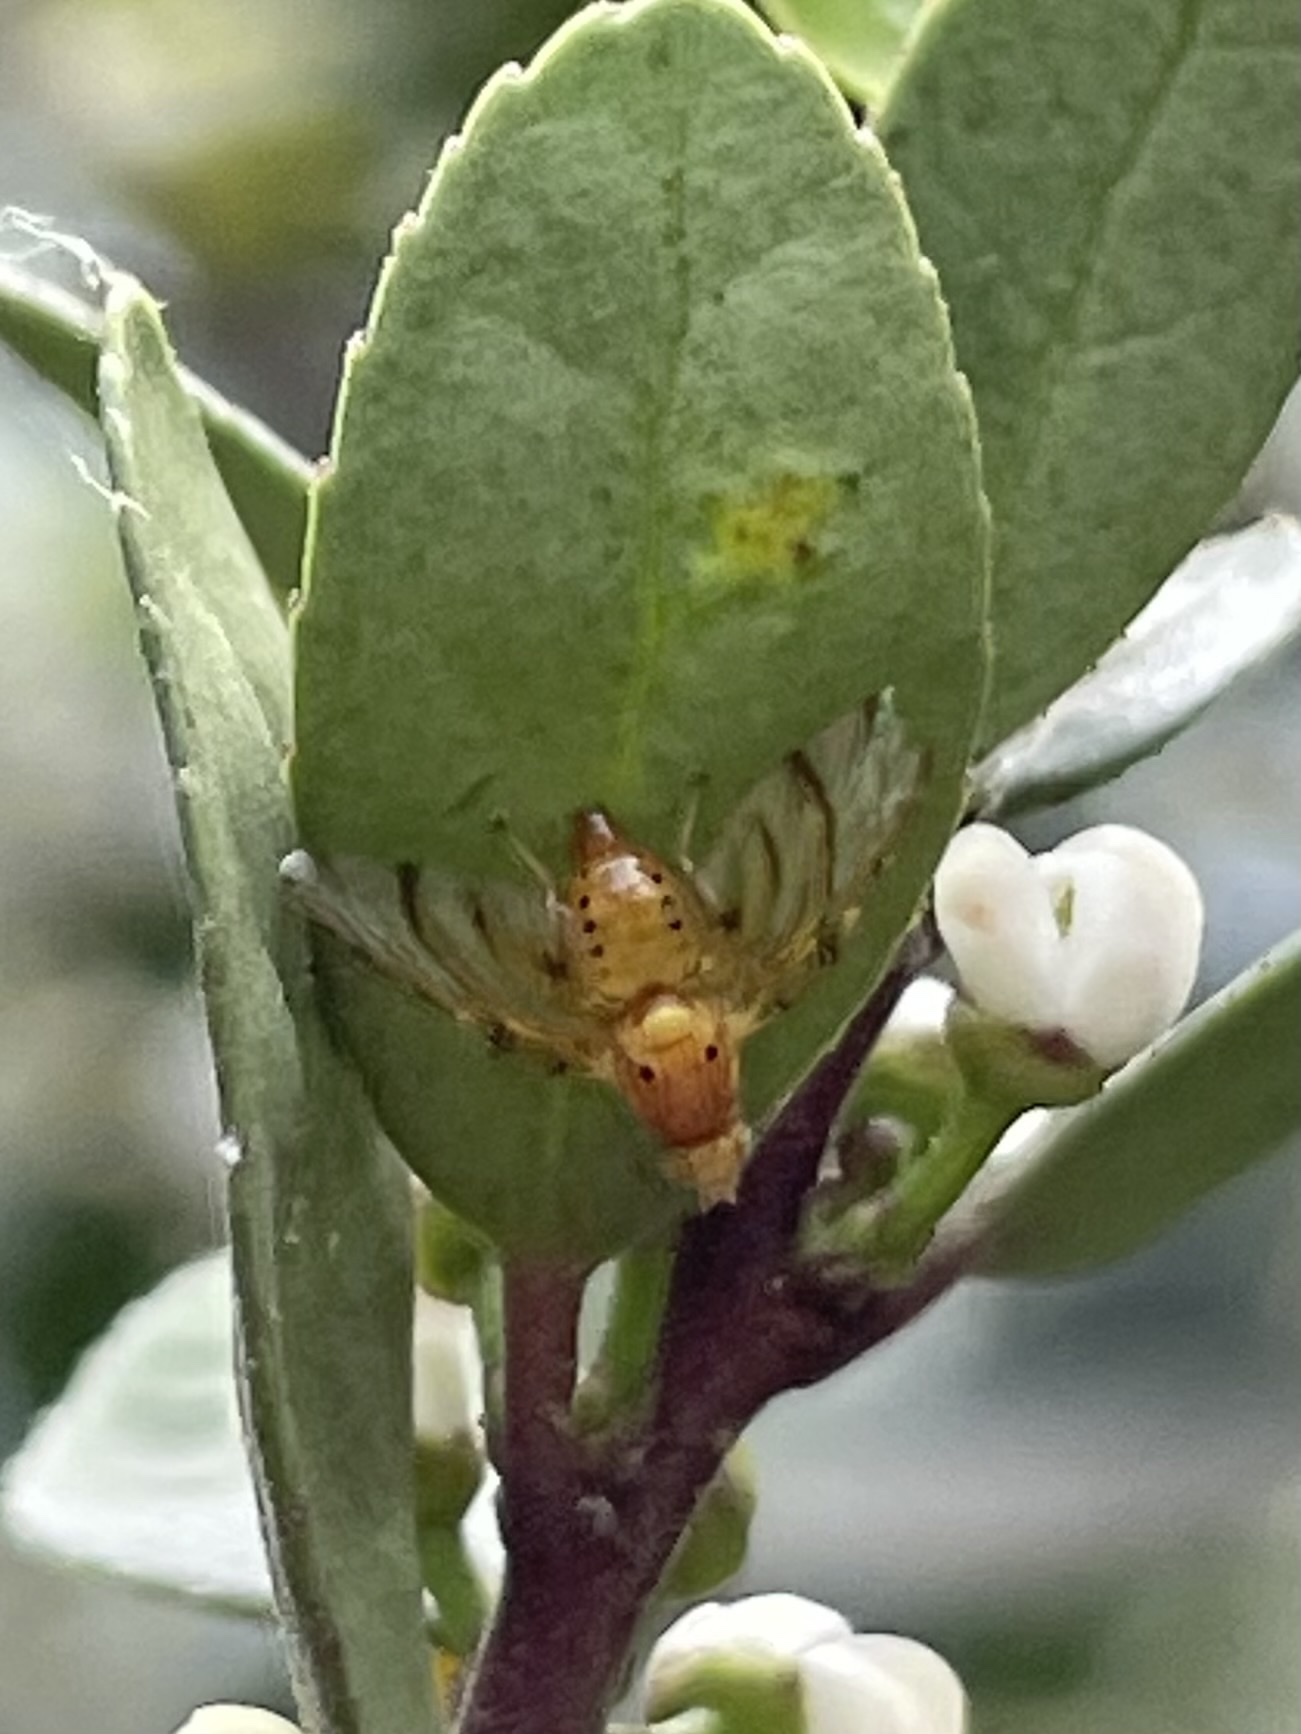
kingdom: Animalia
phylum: Arthropoda
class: Insecta
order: Diptera
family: Tephritidae
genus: Tomoplagia
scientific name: Tomoplagia obliqua
